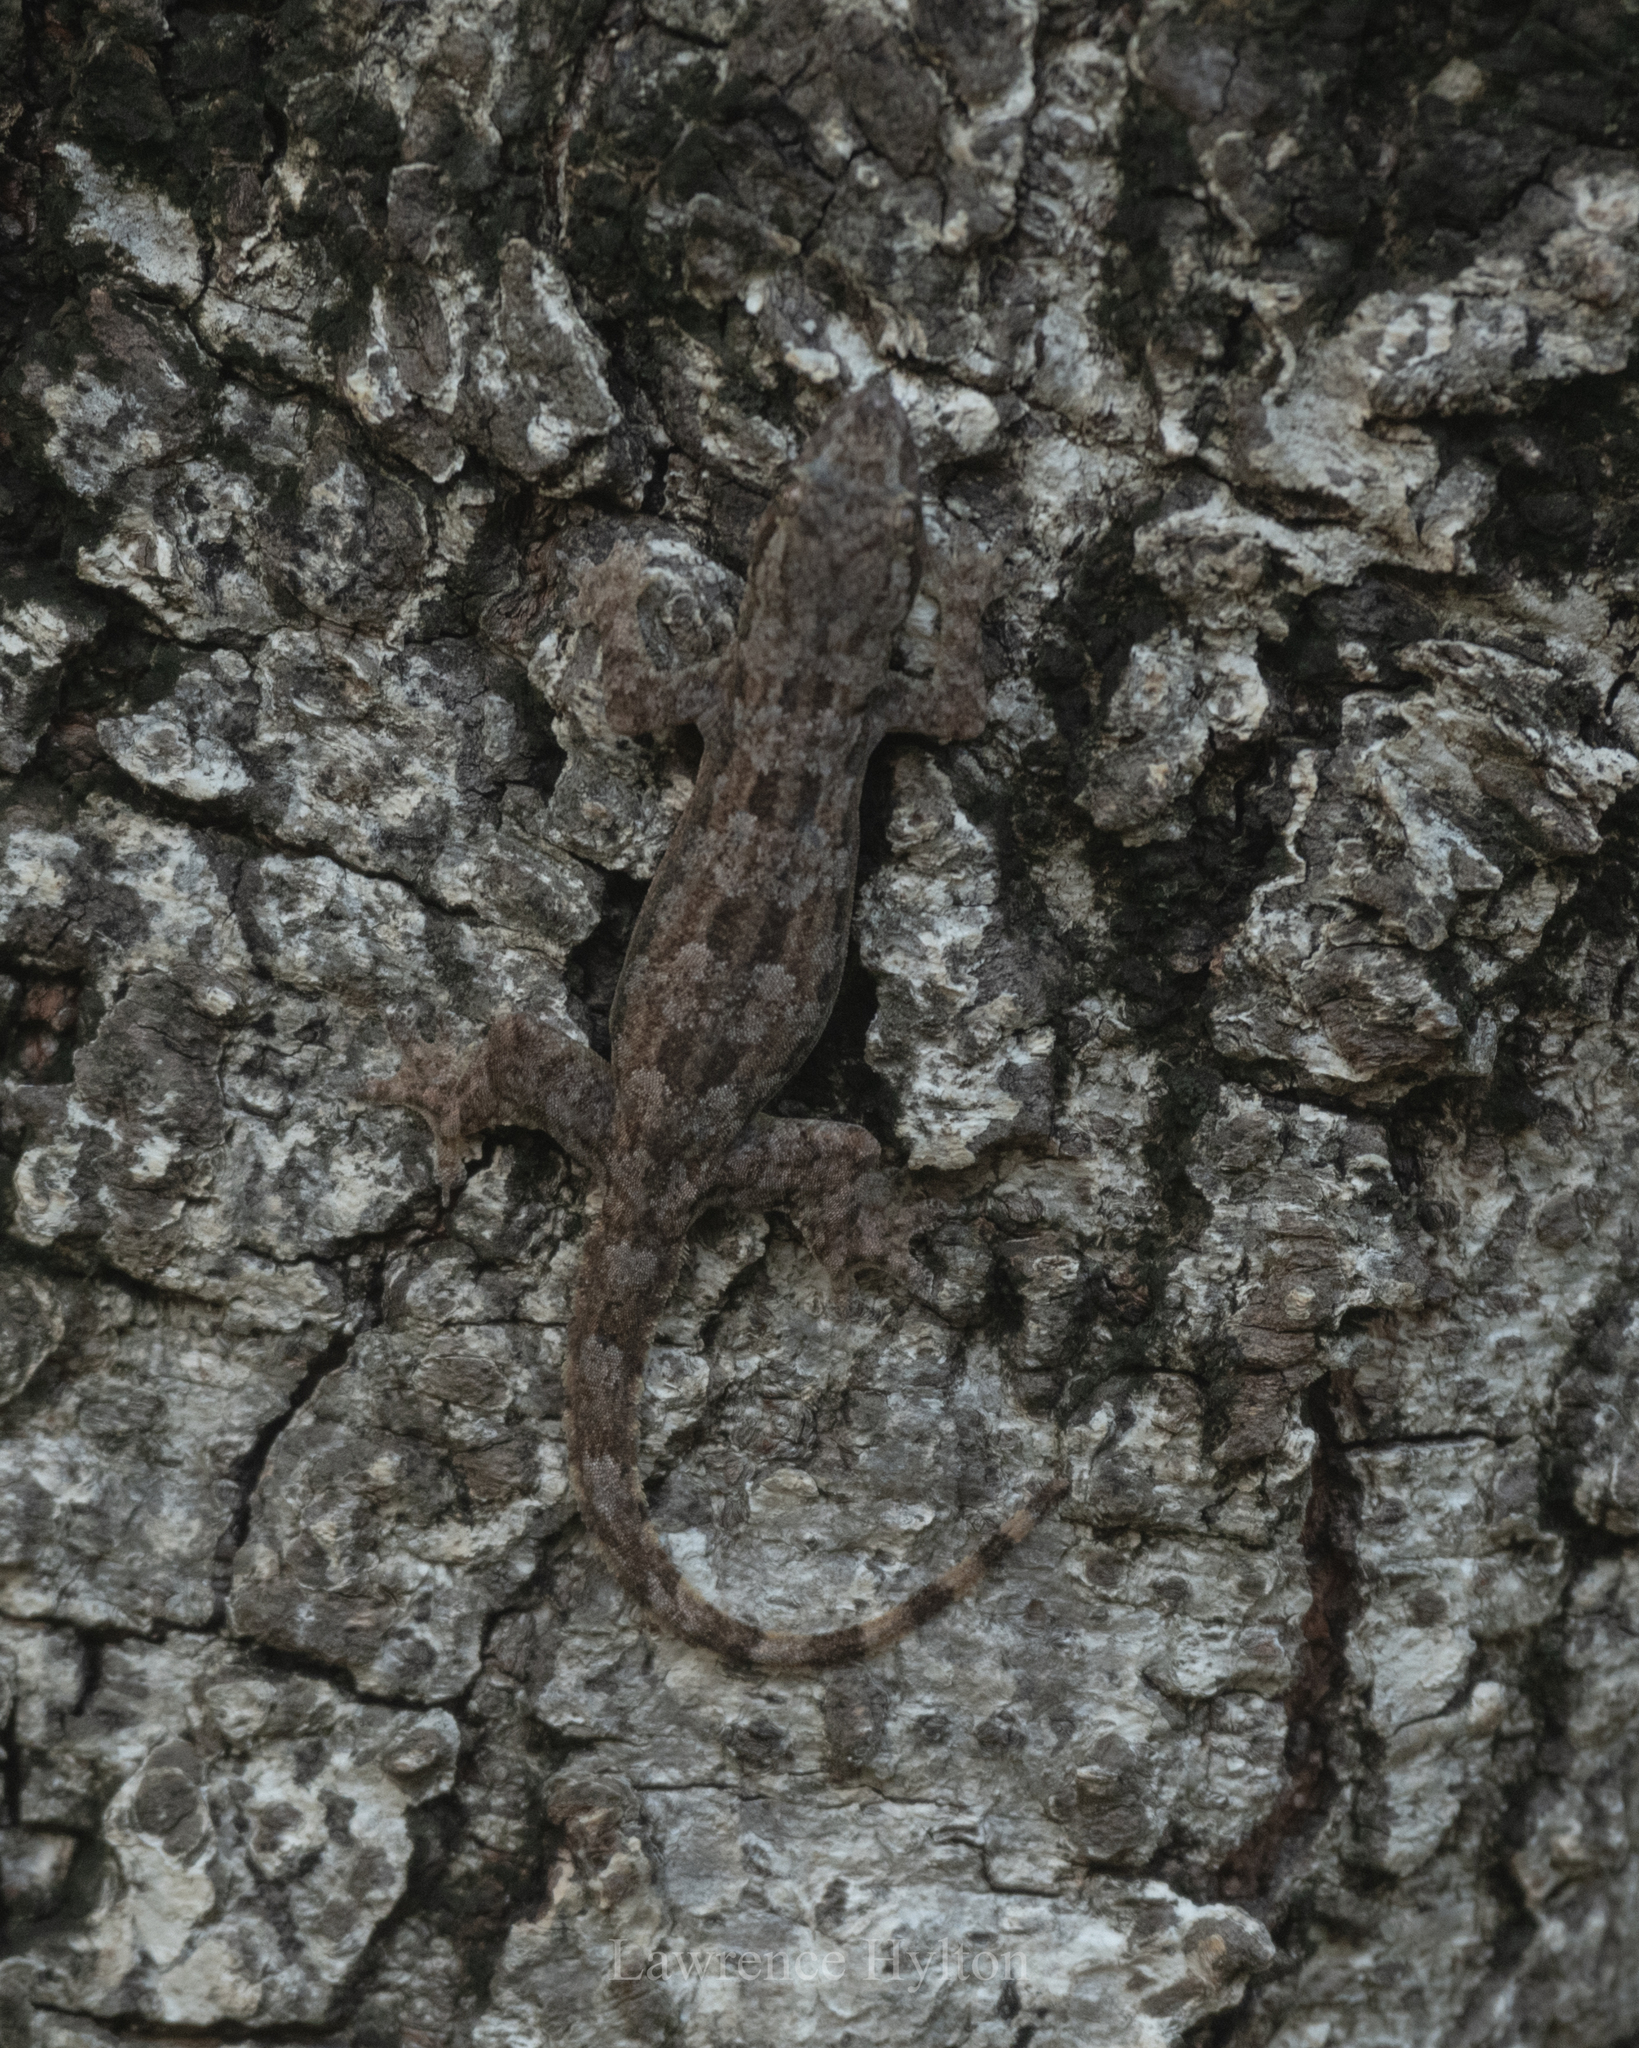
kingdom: Animalia
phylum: Chordata
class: Squamata
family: Gekkonidae
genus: Hemidactylus
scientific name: Hemidactylus platyurus
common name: Flat-tailed house gecko
